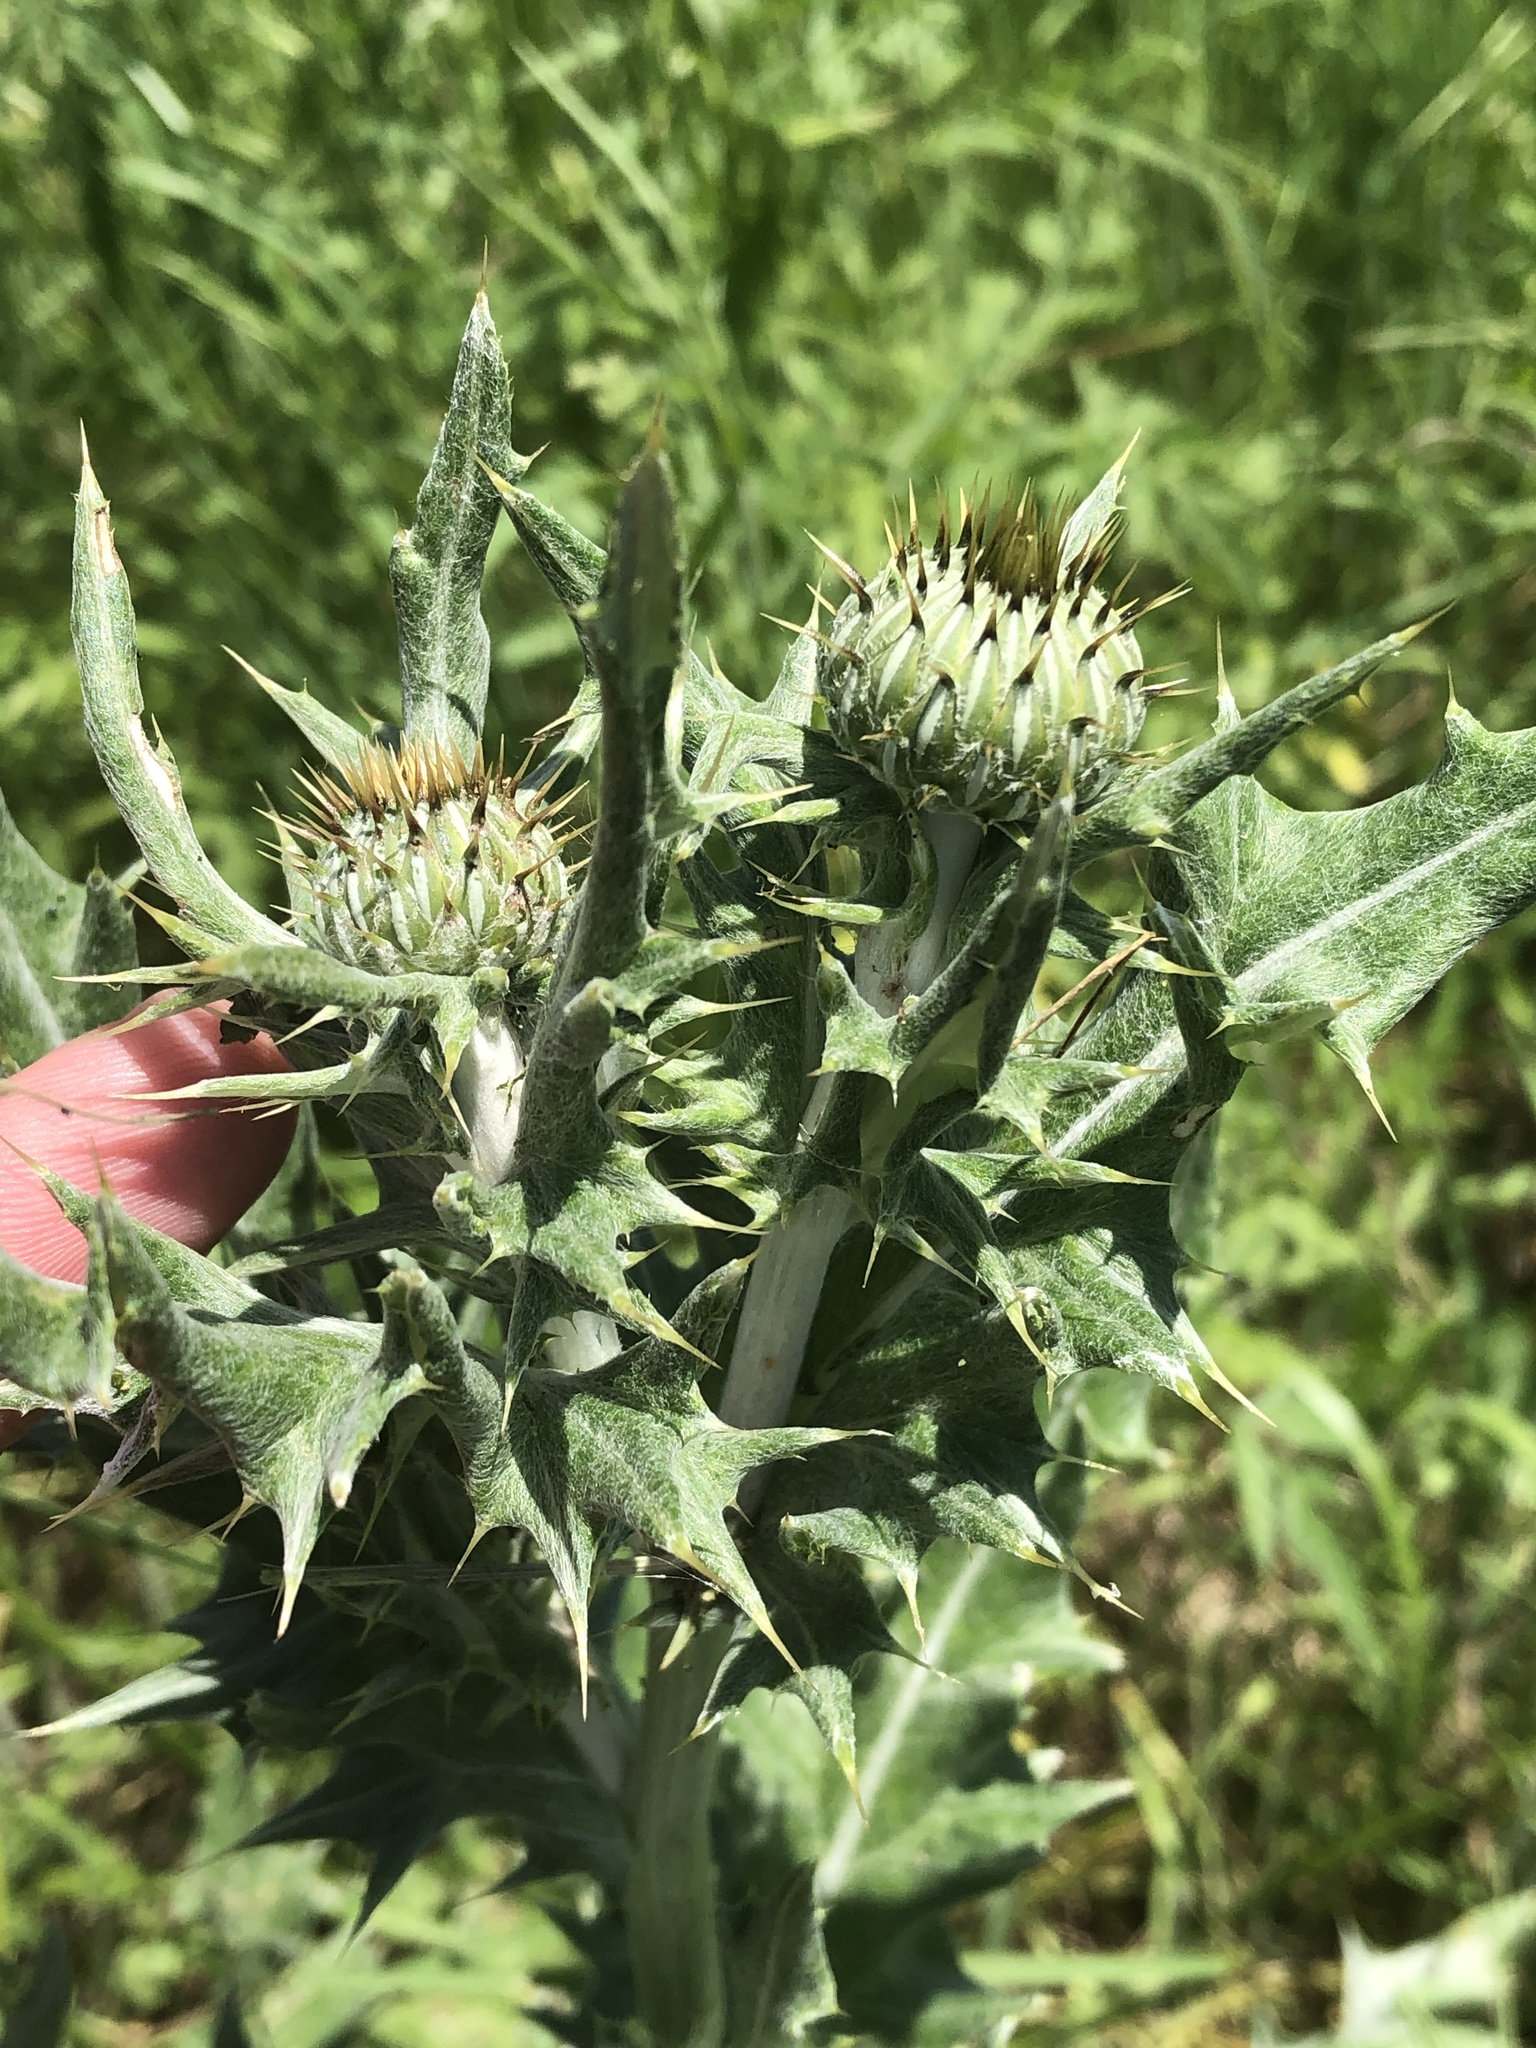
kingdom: Plantae
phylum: Tracheophyta
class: Magnoliopsida
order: Asterales
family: Asteraceae
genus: Cirsium
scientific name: Cirsium undulatum
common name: Pasture thistle
